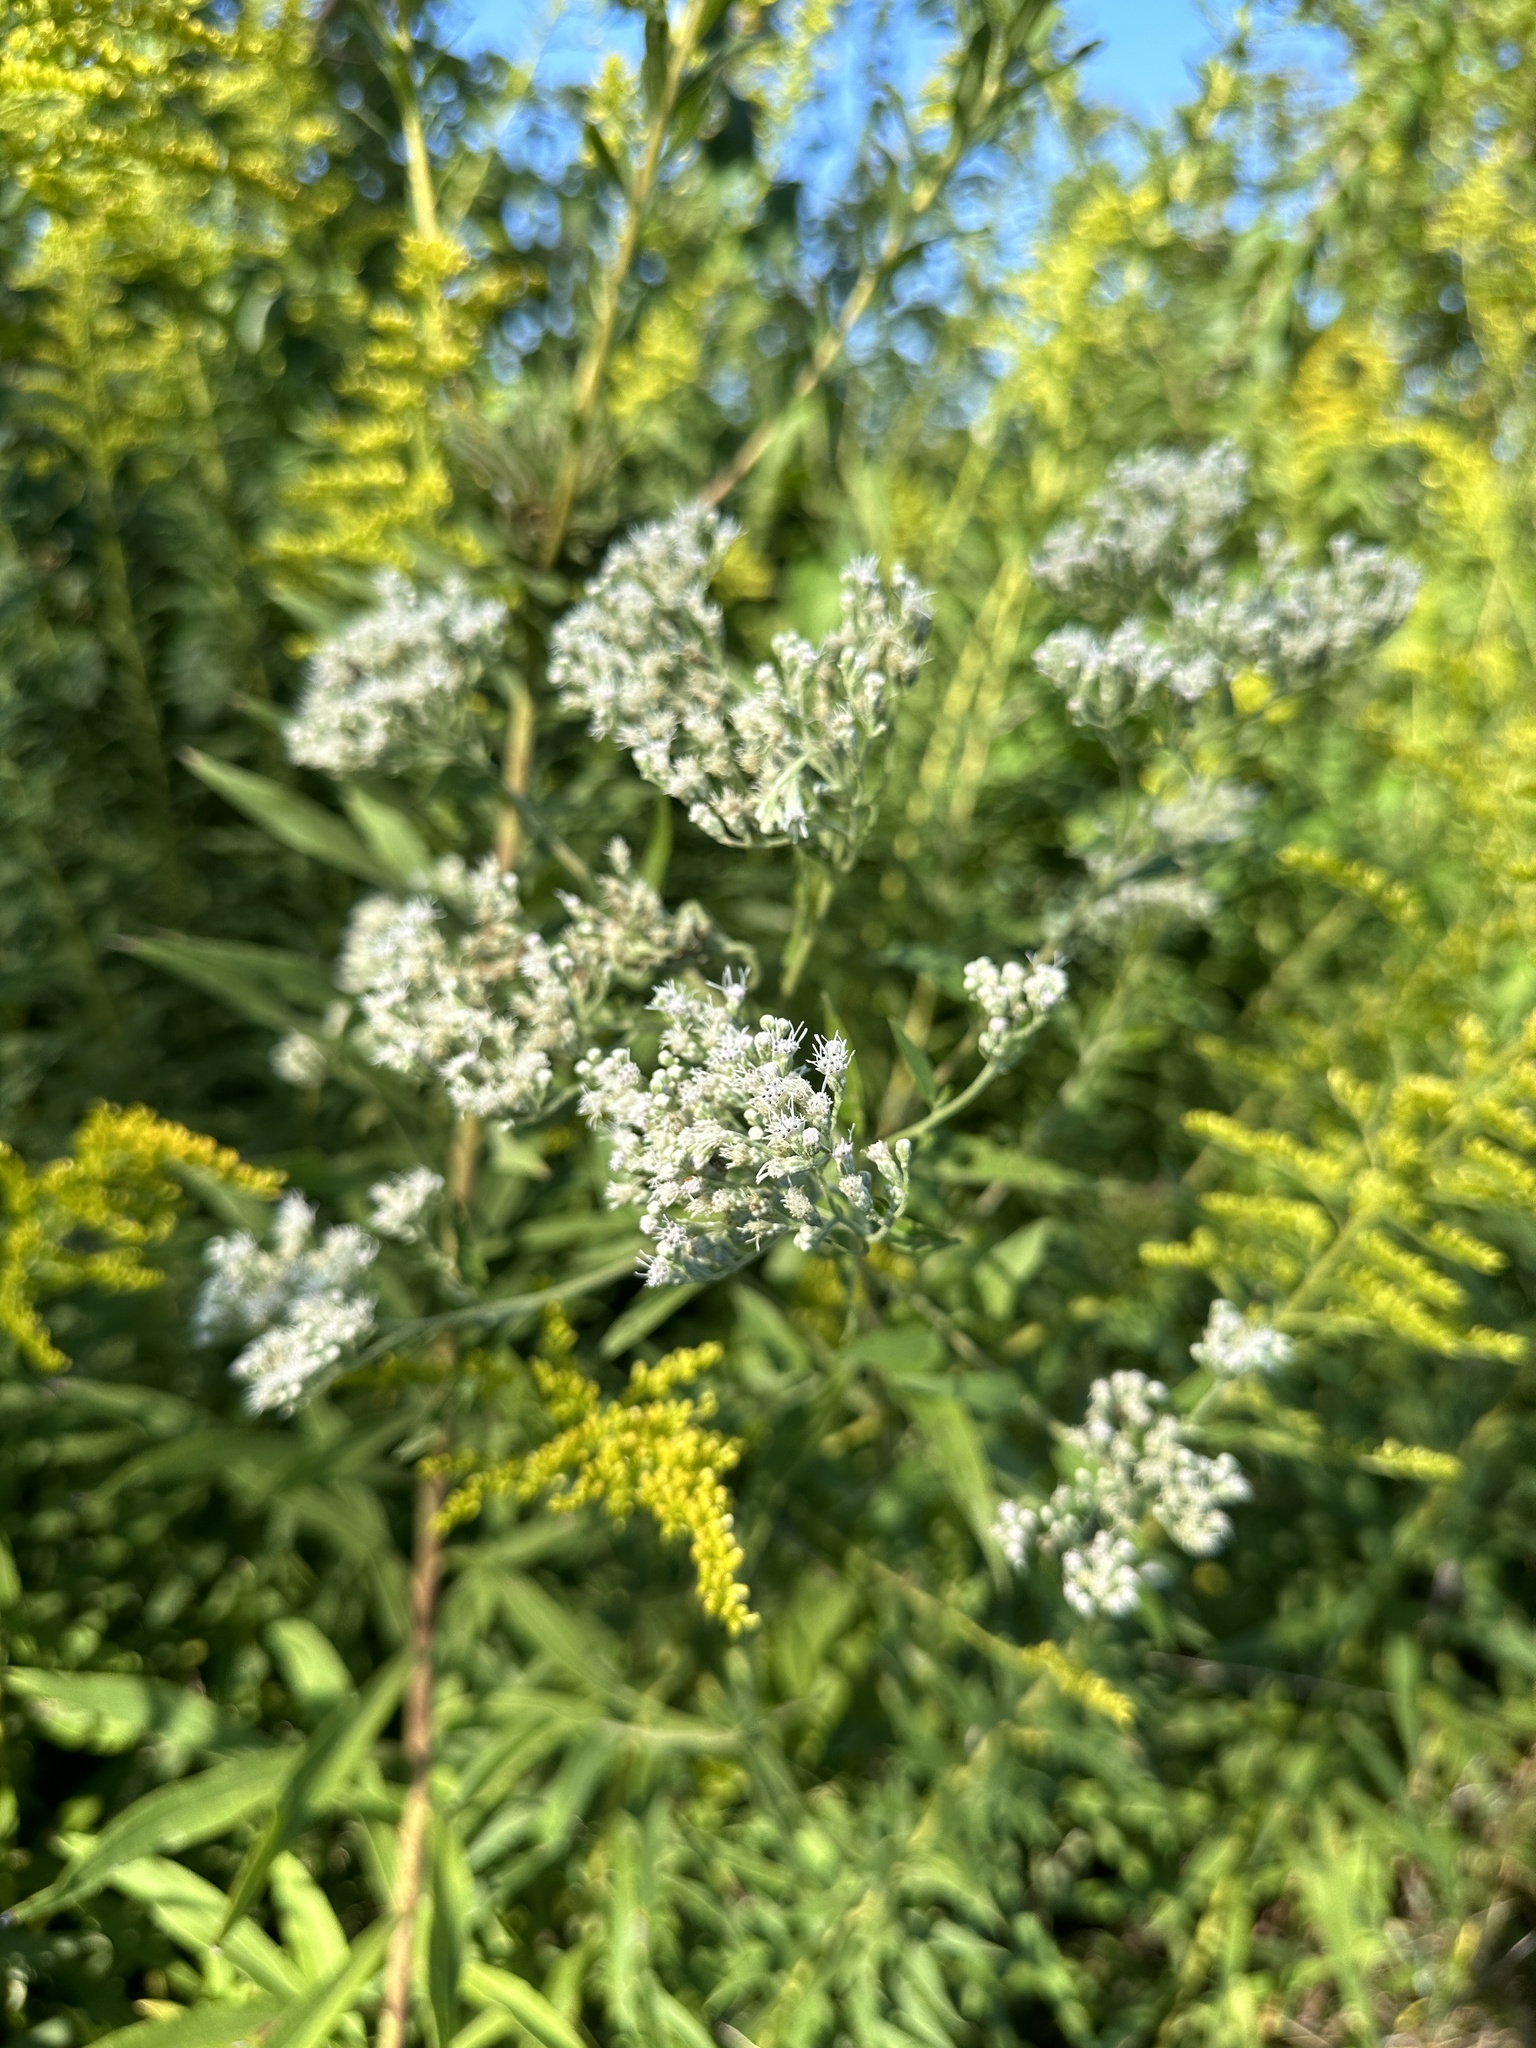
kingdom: Plantae
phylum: Tracheophyta
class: Magnoliopsida
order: Asterales
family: Asteraceae
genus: Eupatorium
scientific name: Eupatorium serotinum
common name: Late boneset
